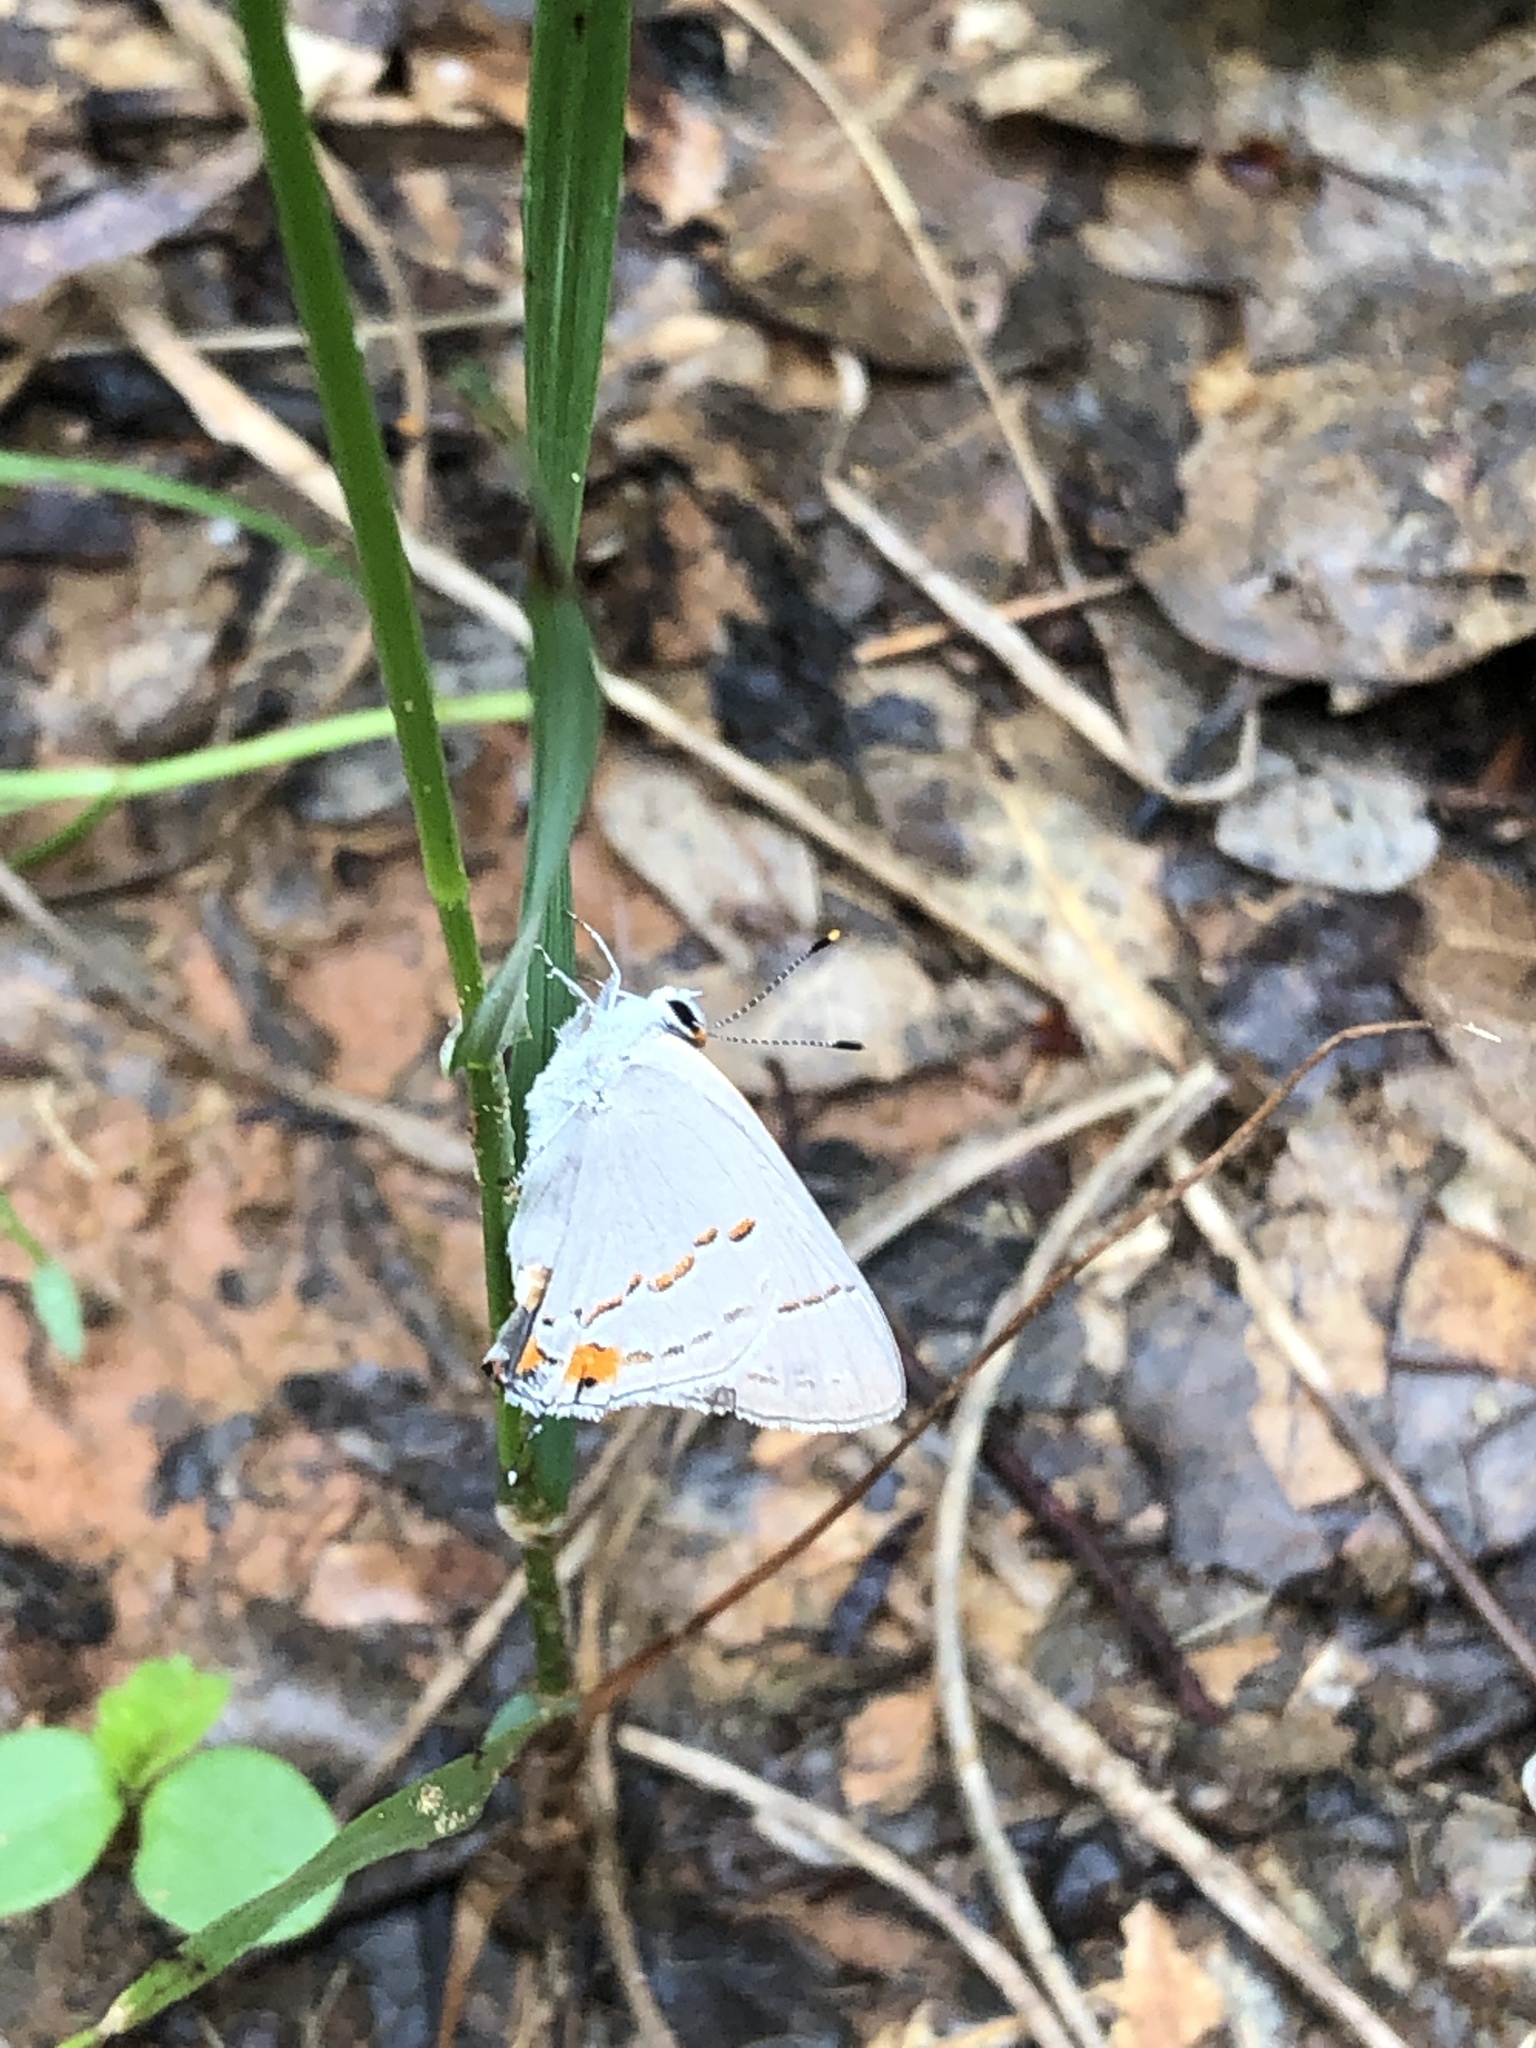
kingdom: Animalia
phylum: Arthropoda
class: Insecta
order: Lepidoptera
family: Lycaenidae
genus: Strymon
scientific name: Strymon melinus
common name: Gray hairstreak
